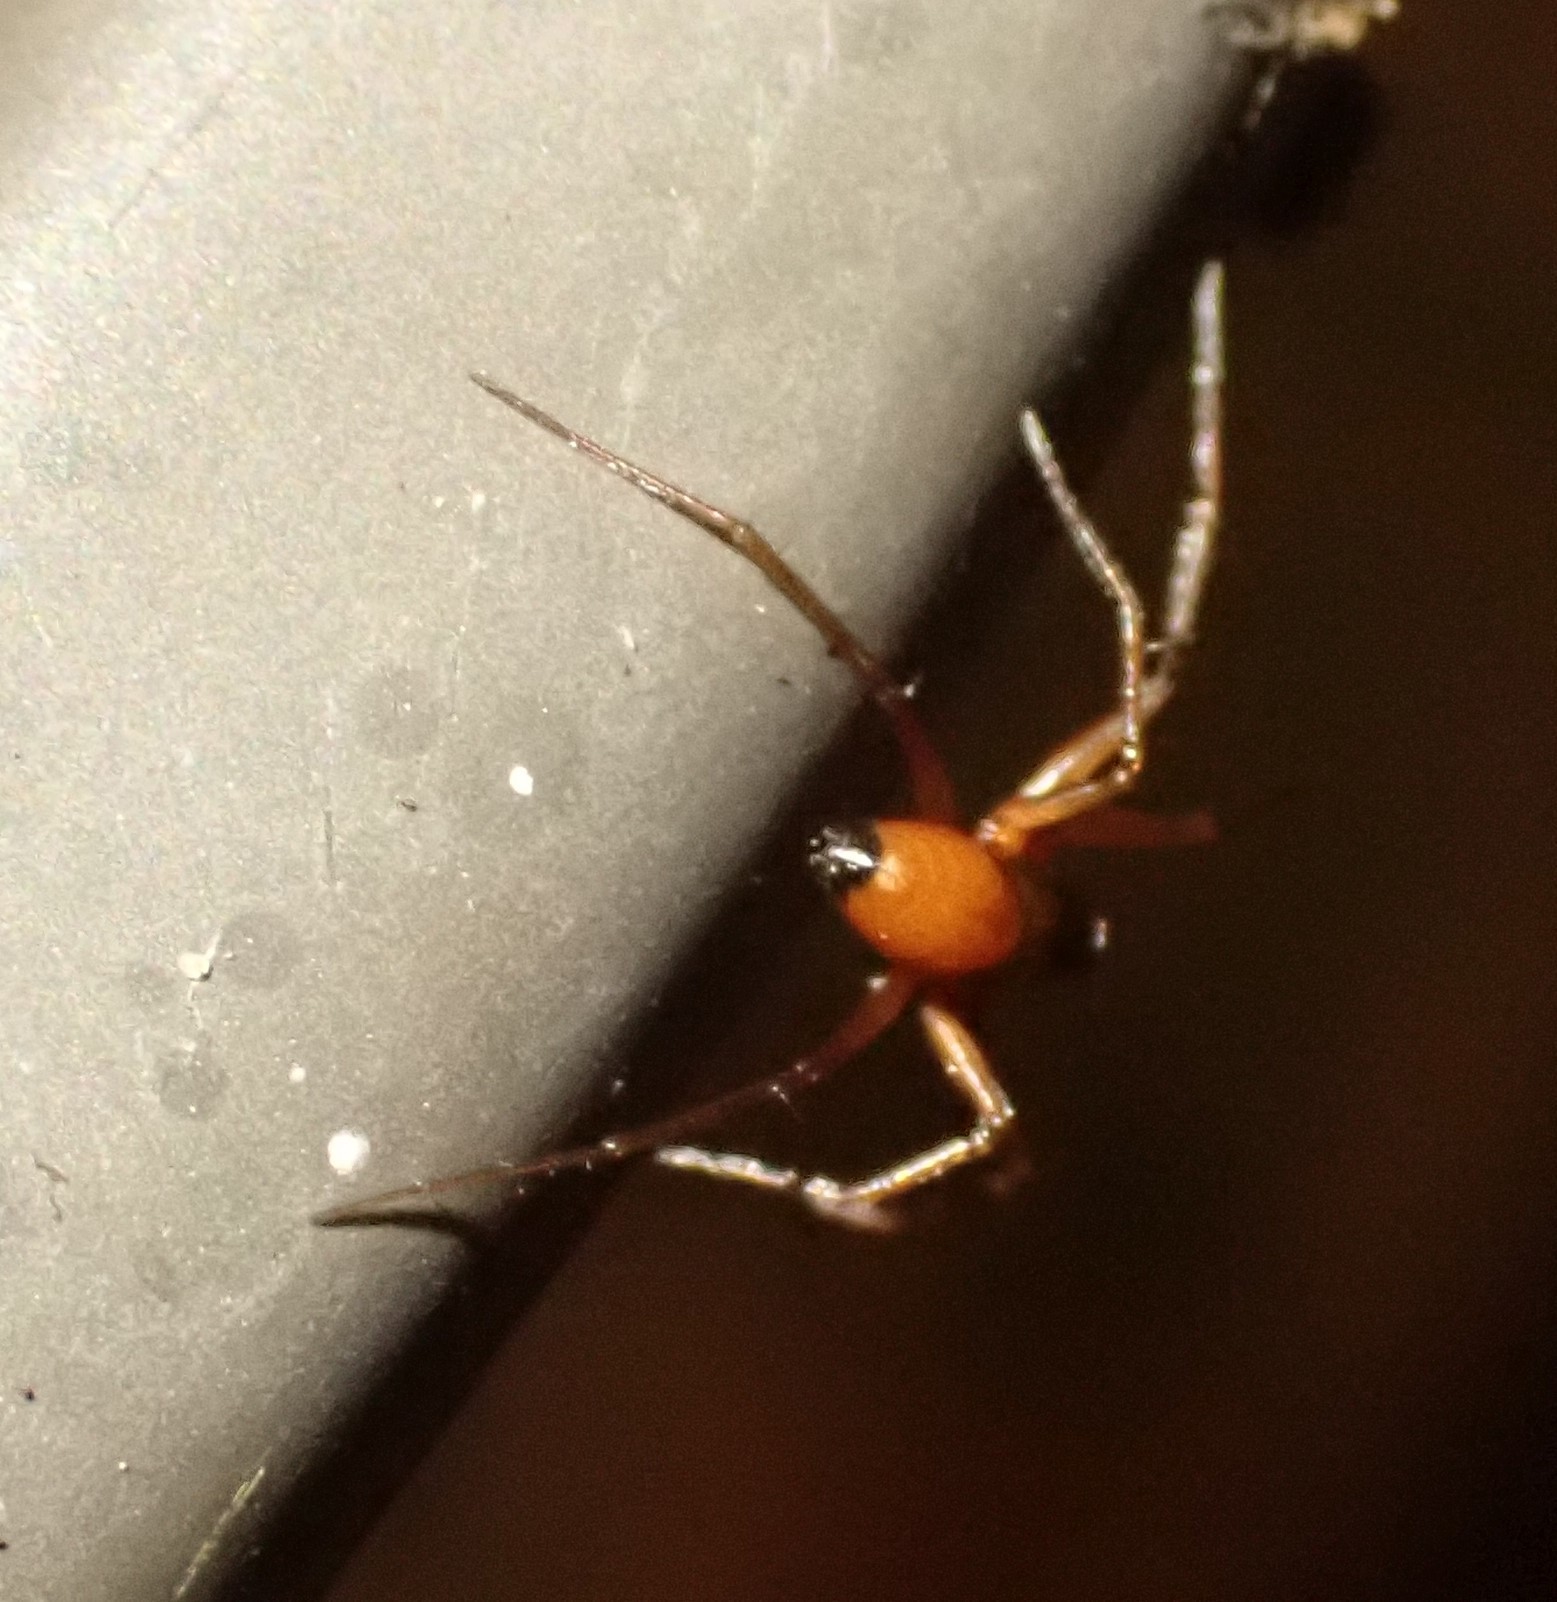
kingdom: Animalia
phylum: Arthropoda
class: Arachnida
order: Araneae
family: Linyphiidae
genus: Ostearius
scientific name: Ostearius melanopygius
